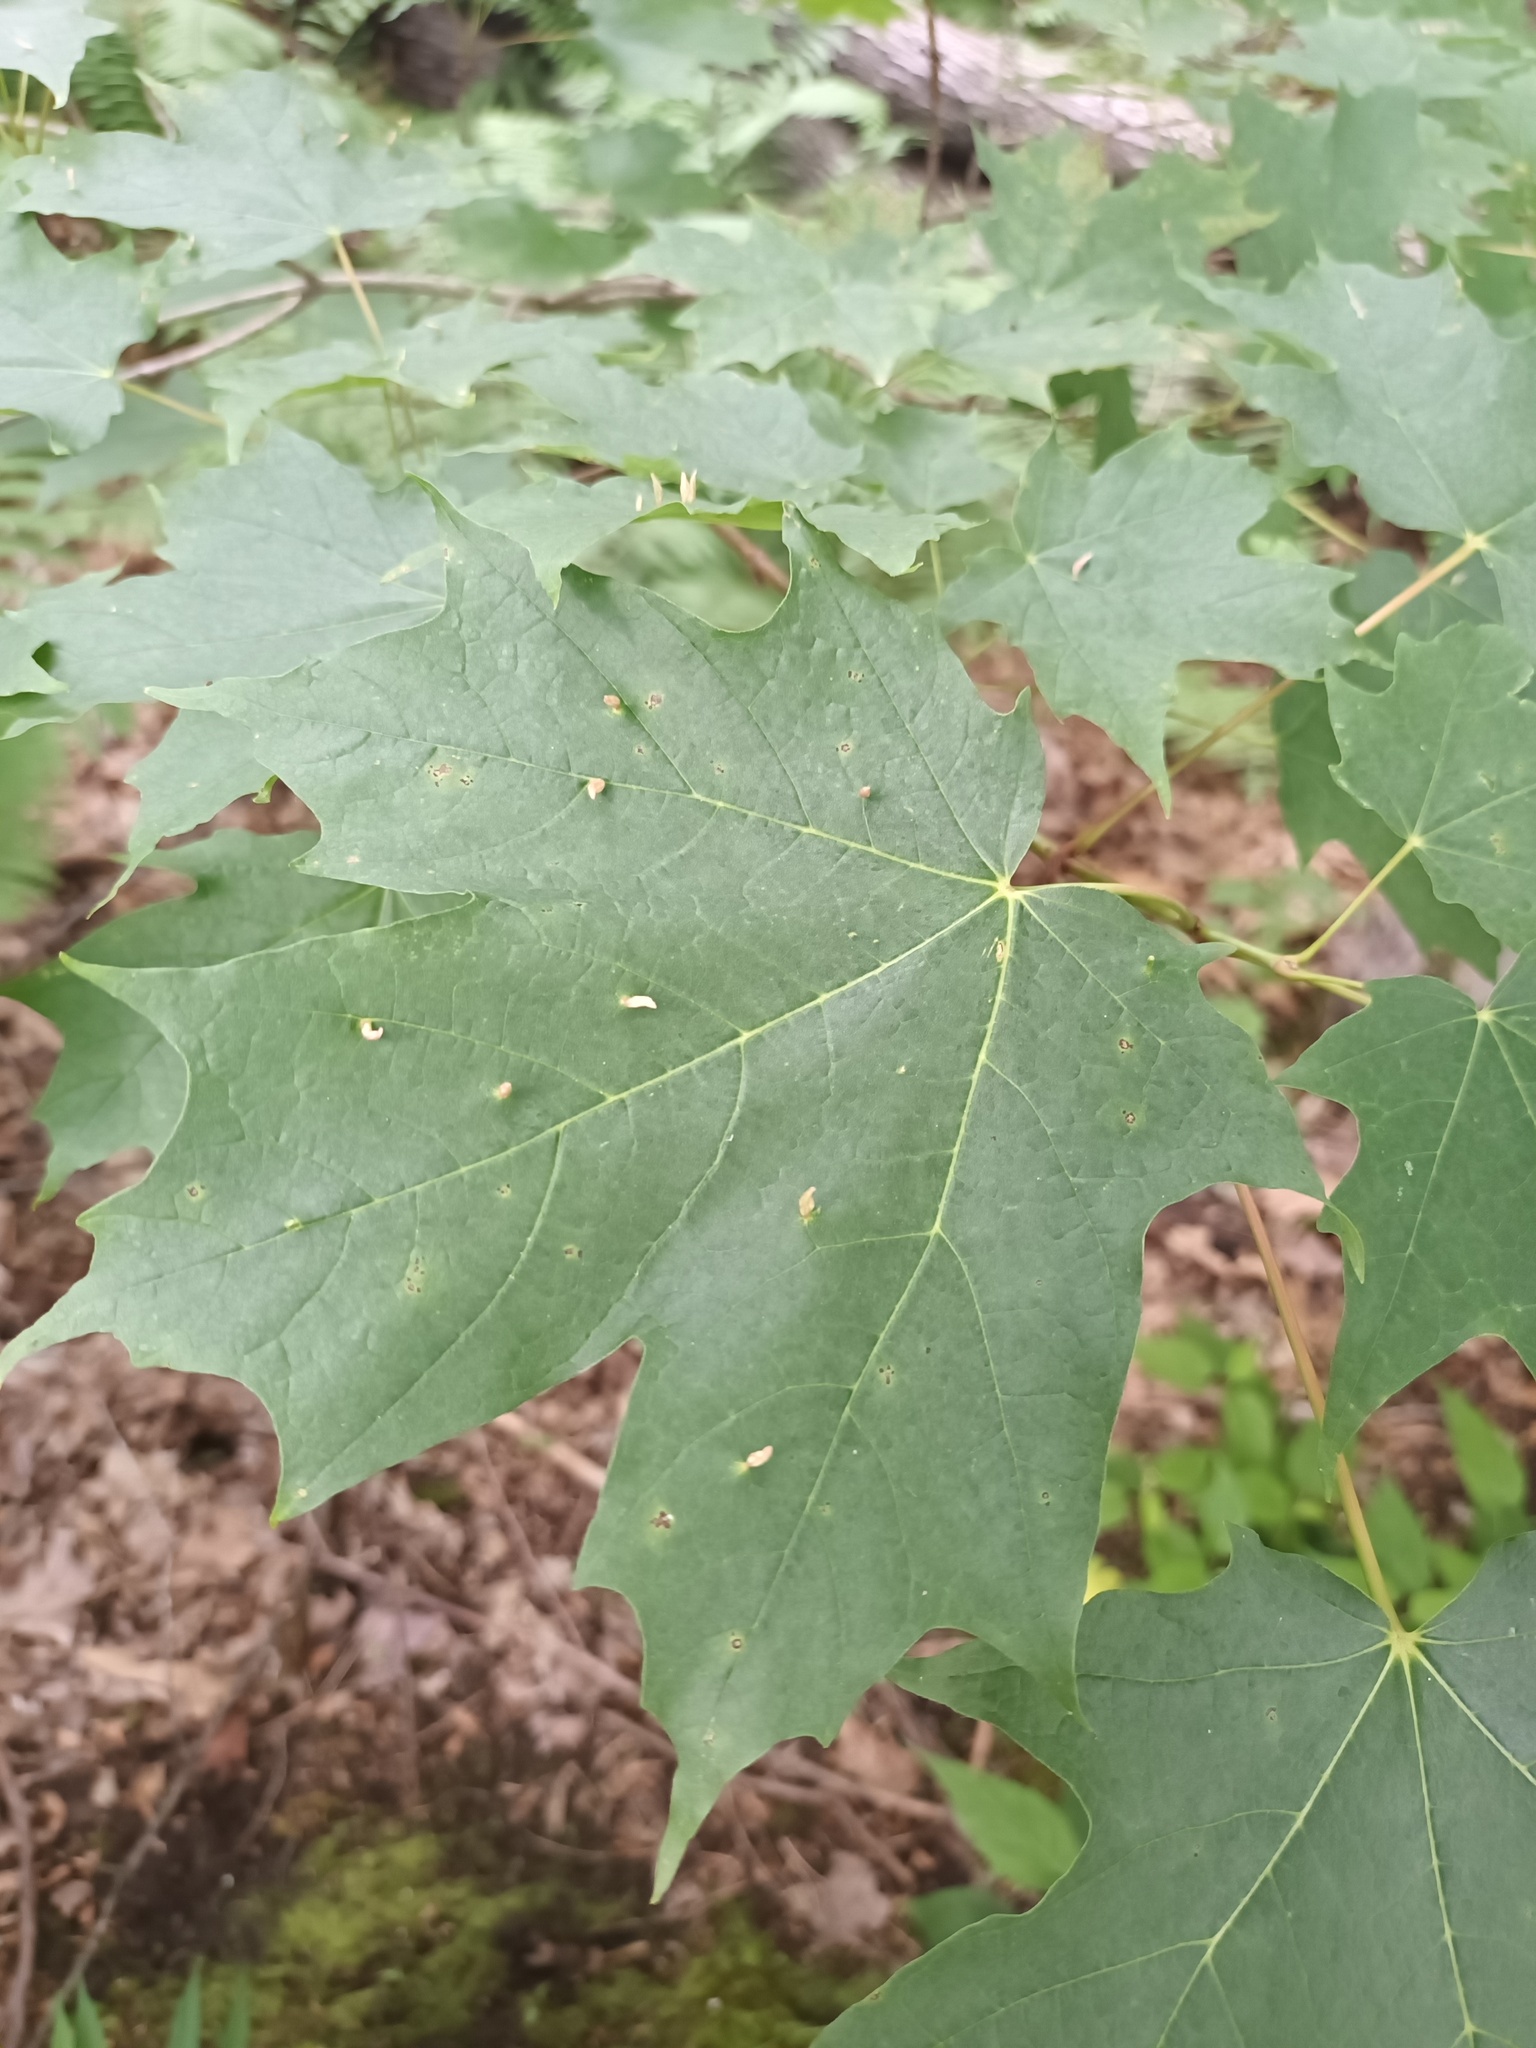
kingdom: Animalia
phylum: Arthropoda
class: Arachnida
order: Trombidiformes
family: Eriophyidae
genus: Vasates
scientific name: Vasates aceriscrumena
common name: Maple spindle gall mite
